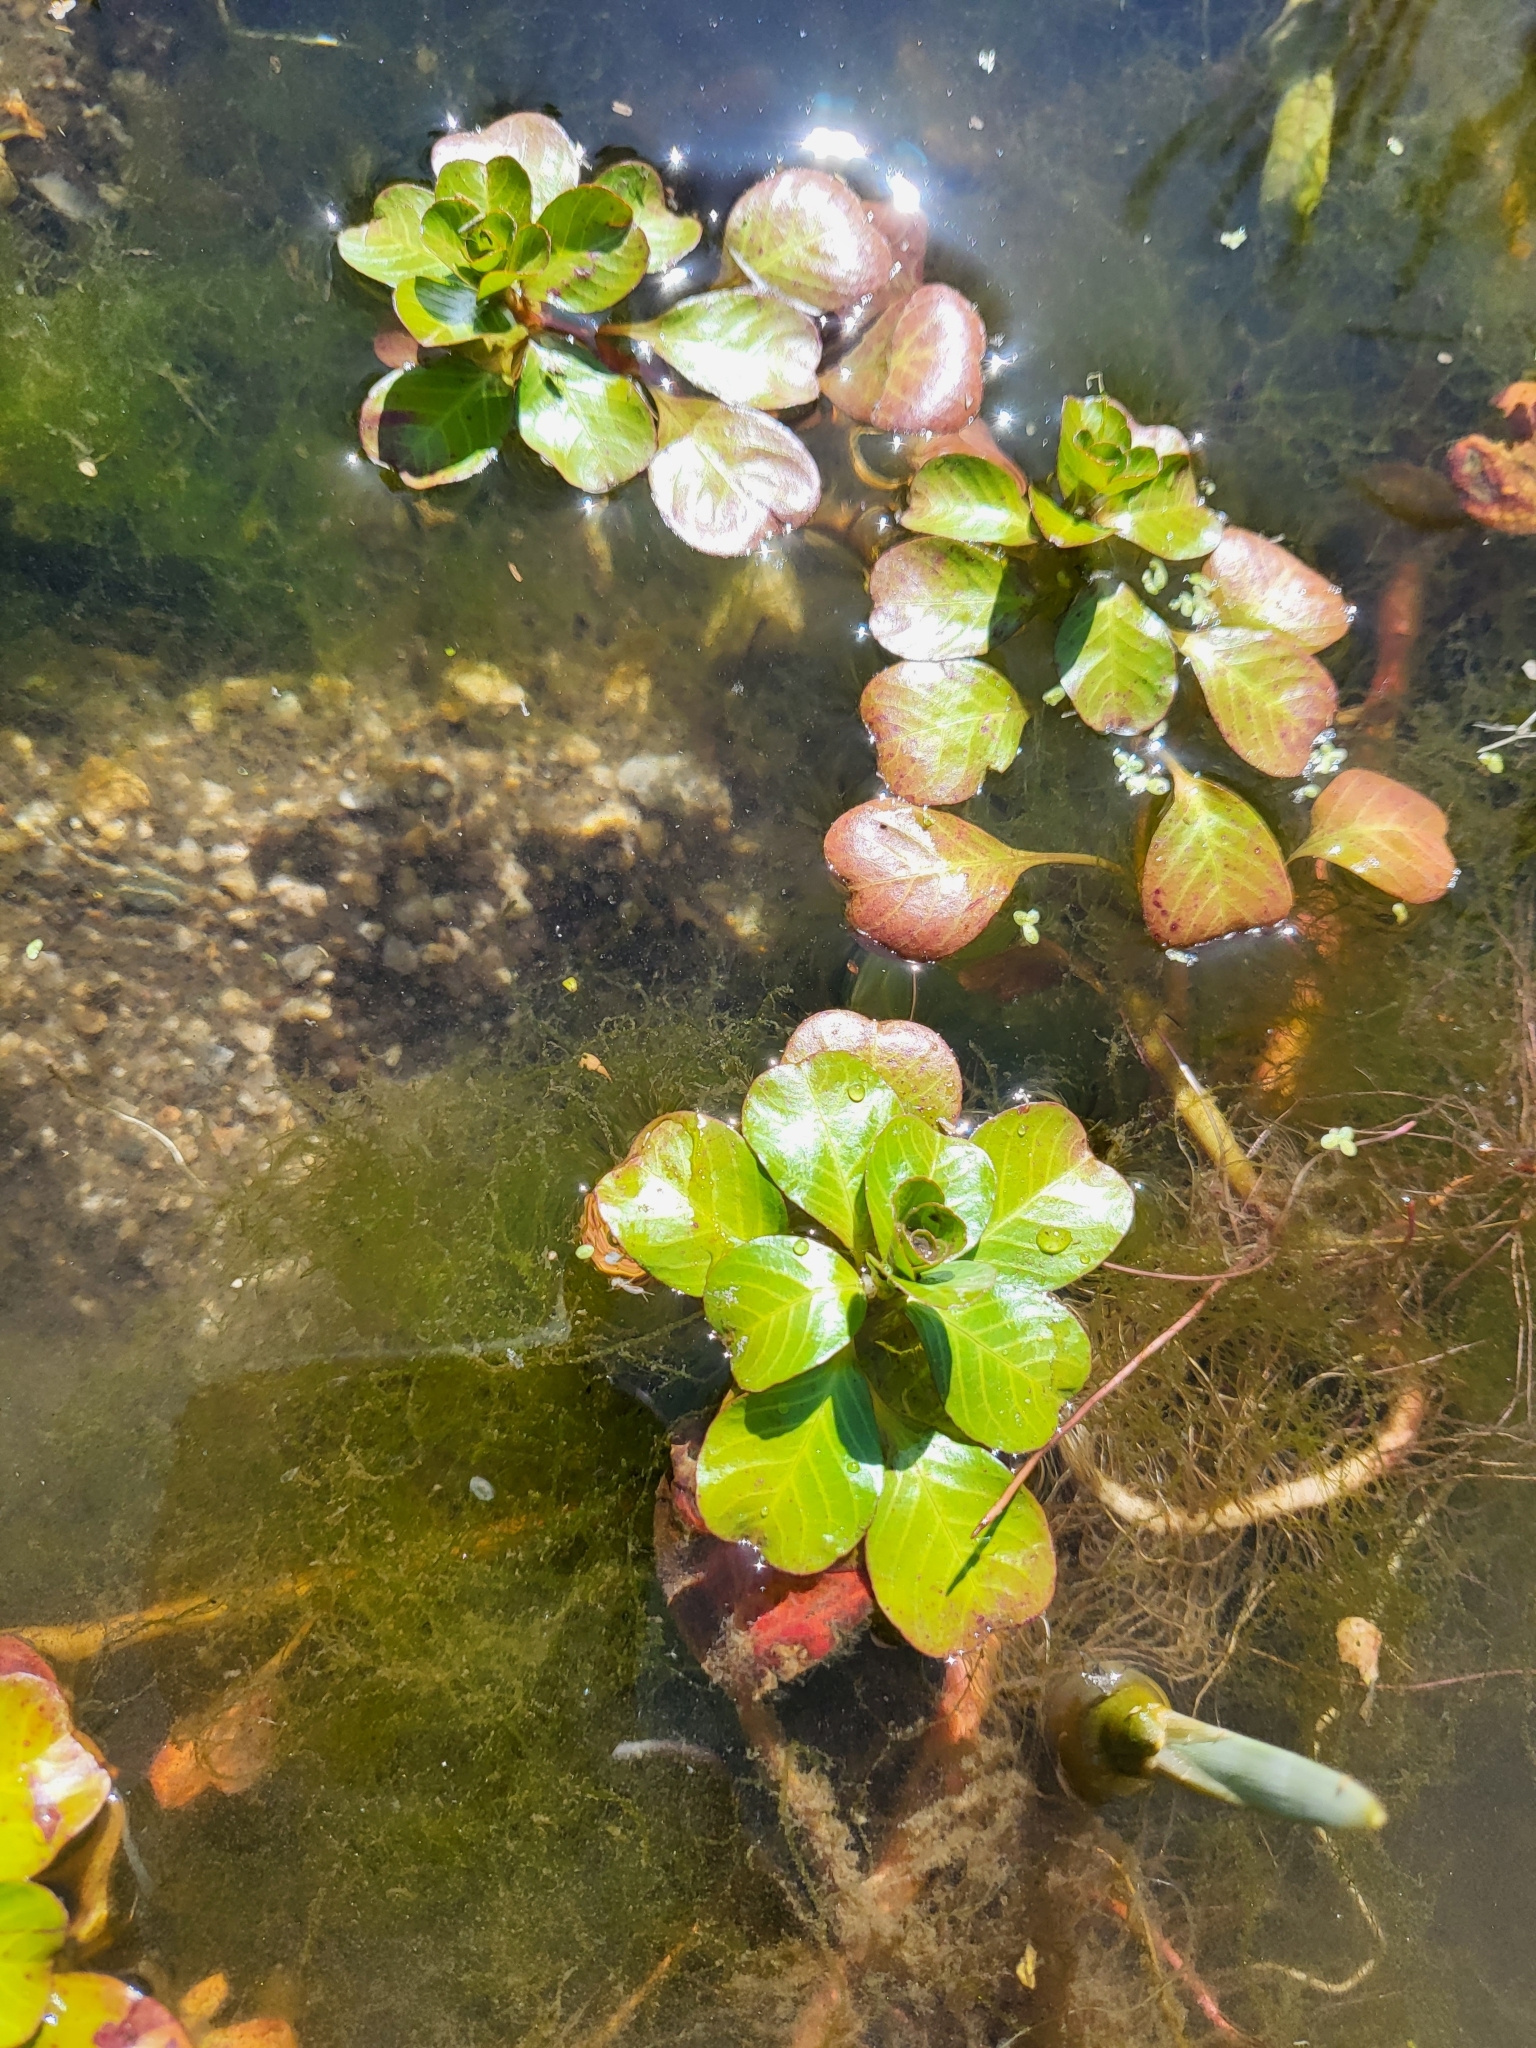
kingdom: Plantae
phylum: Tracheophyta
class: Magnoliopsida
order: Myrtales
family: Onagraceae
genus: Ludwigia
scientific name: Ludwigia peploides
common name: Floating primrose-willow
